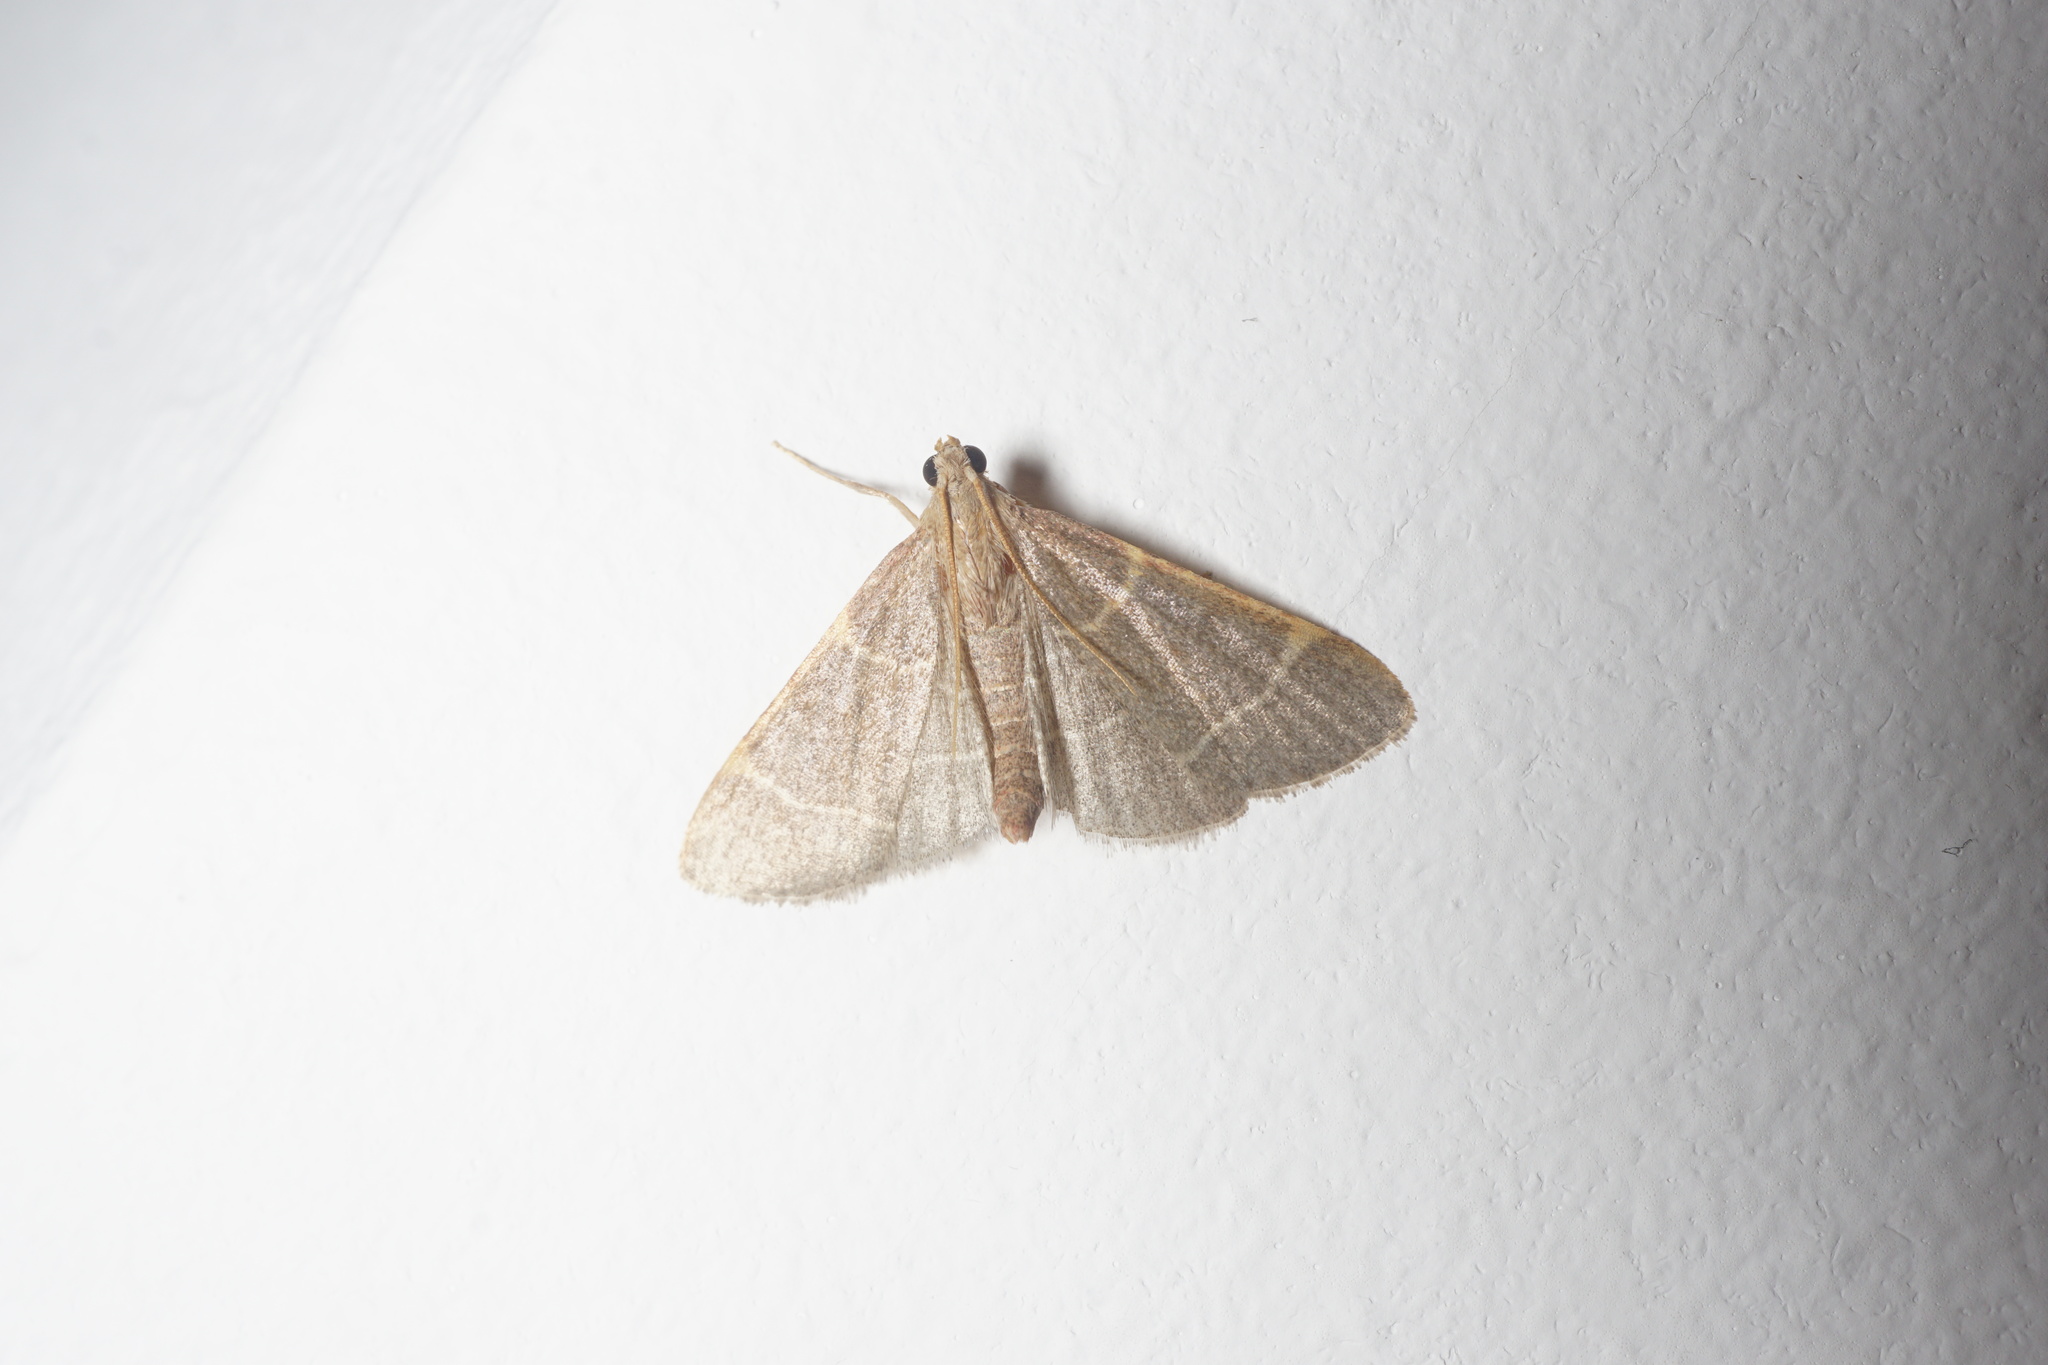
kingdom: Animalia
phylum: Arthropoda
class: Insecta
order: Lepidoptera
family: Pyralidae
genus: Hypsopygia
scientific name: Hypsopygia glaucinalis
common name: Double-striped tabby
